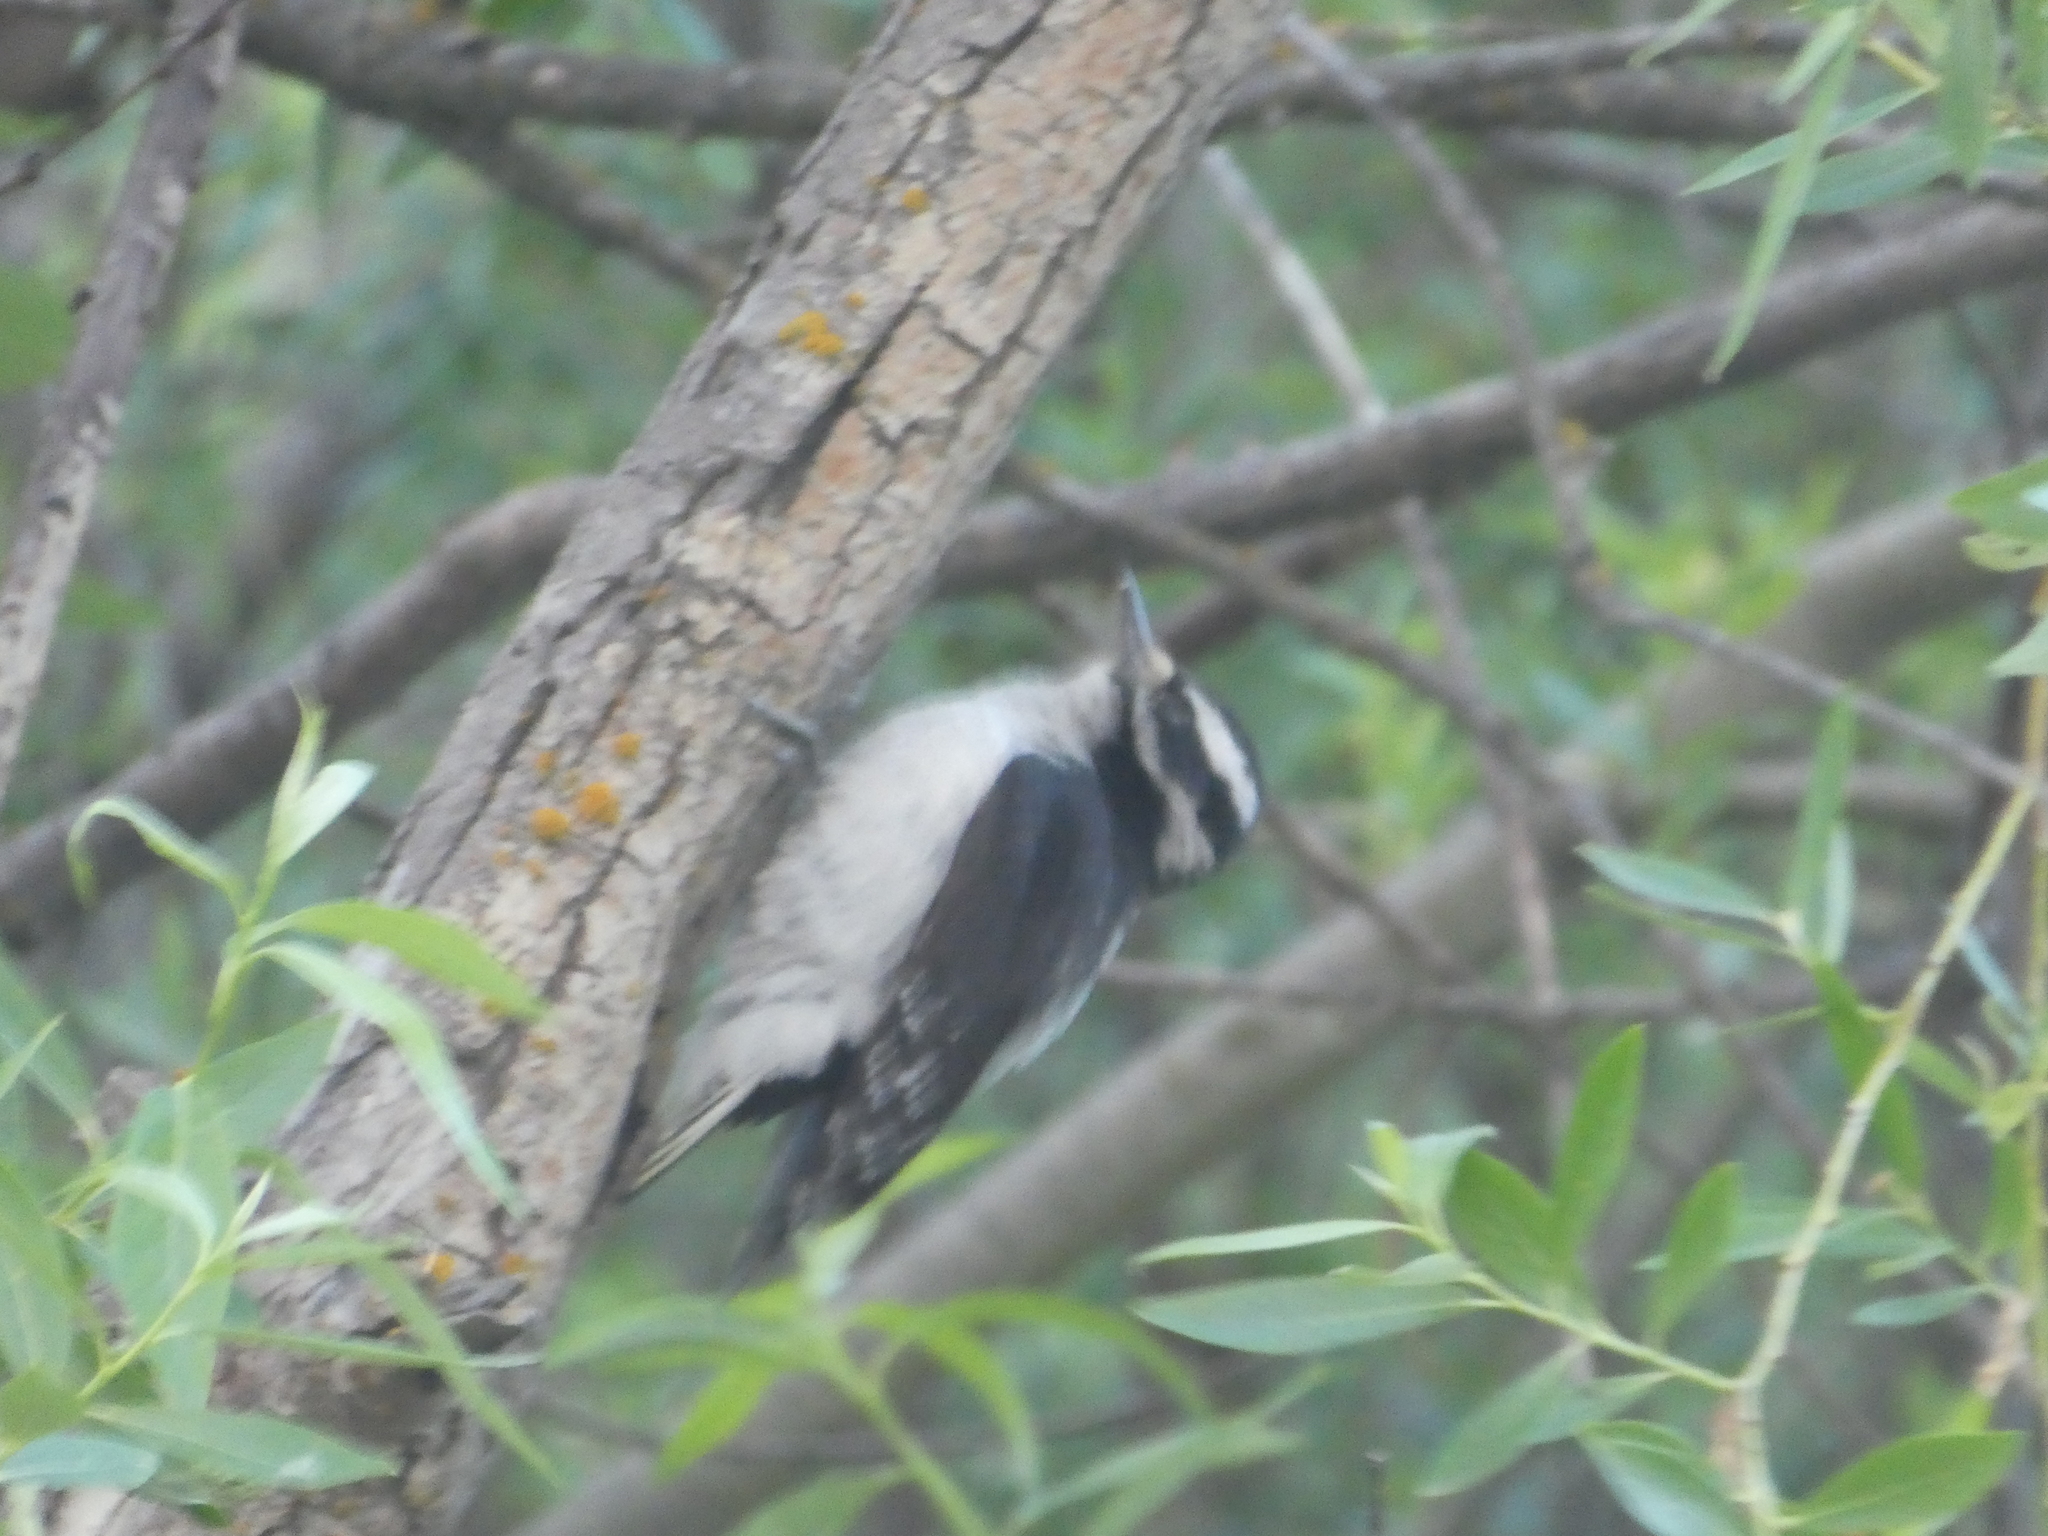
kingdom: Animalia
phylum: Chordata
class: Aves
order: Piciformes
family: Picidae
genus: Dryobates
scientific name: Dryobates pubescens
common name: Downy woodpecker
